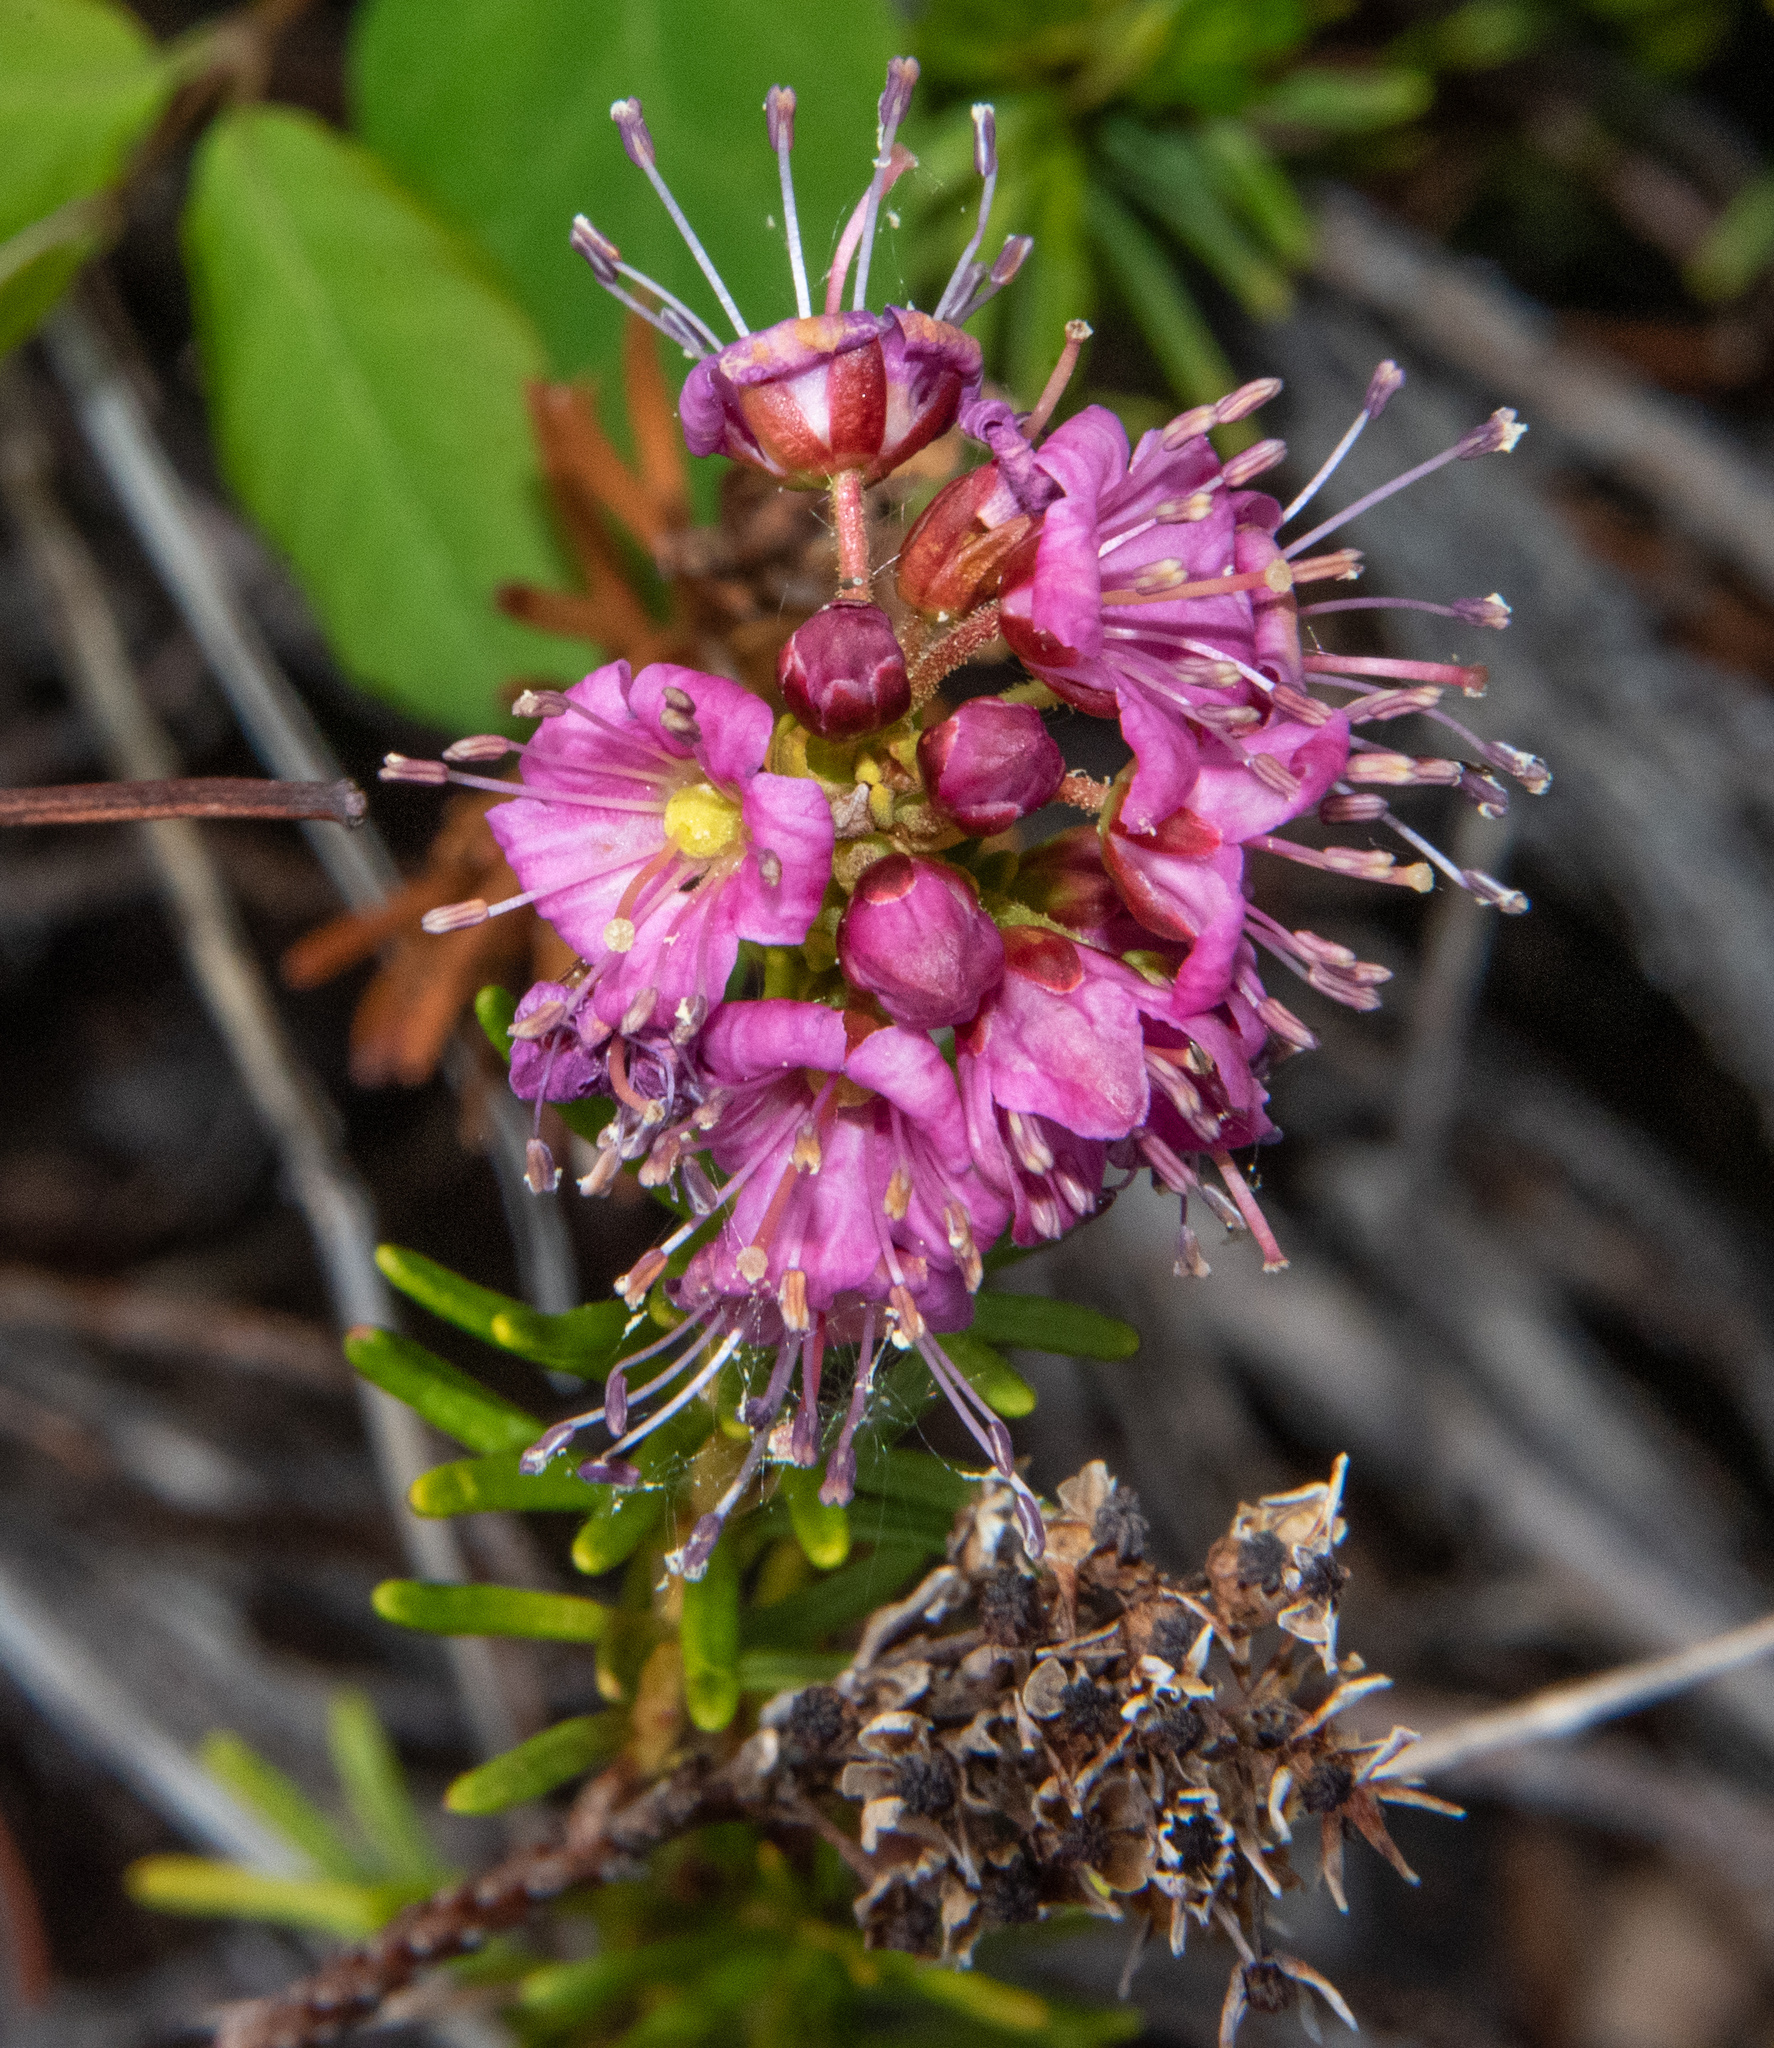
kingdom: Plantae
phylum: Tracheophyta
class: Magnoliopsida
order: Ericales
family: Ericaceae
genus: Phyllodoce
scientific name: Phyllodoce breweri
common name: Brewer's mountain-heather
